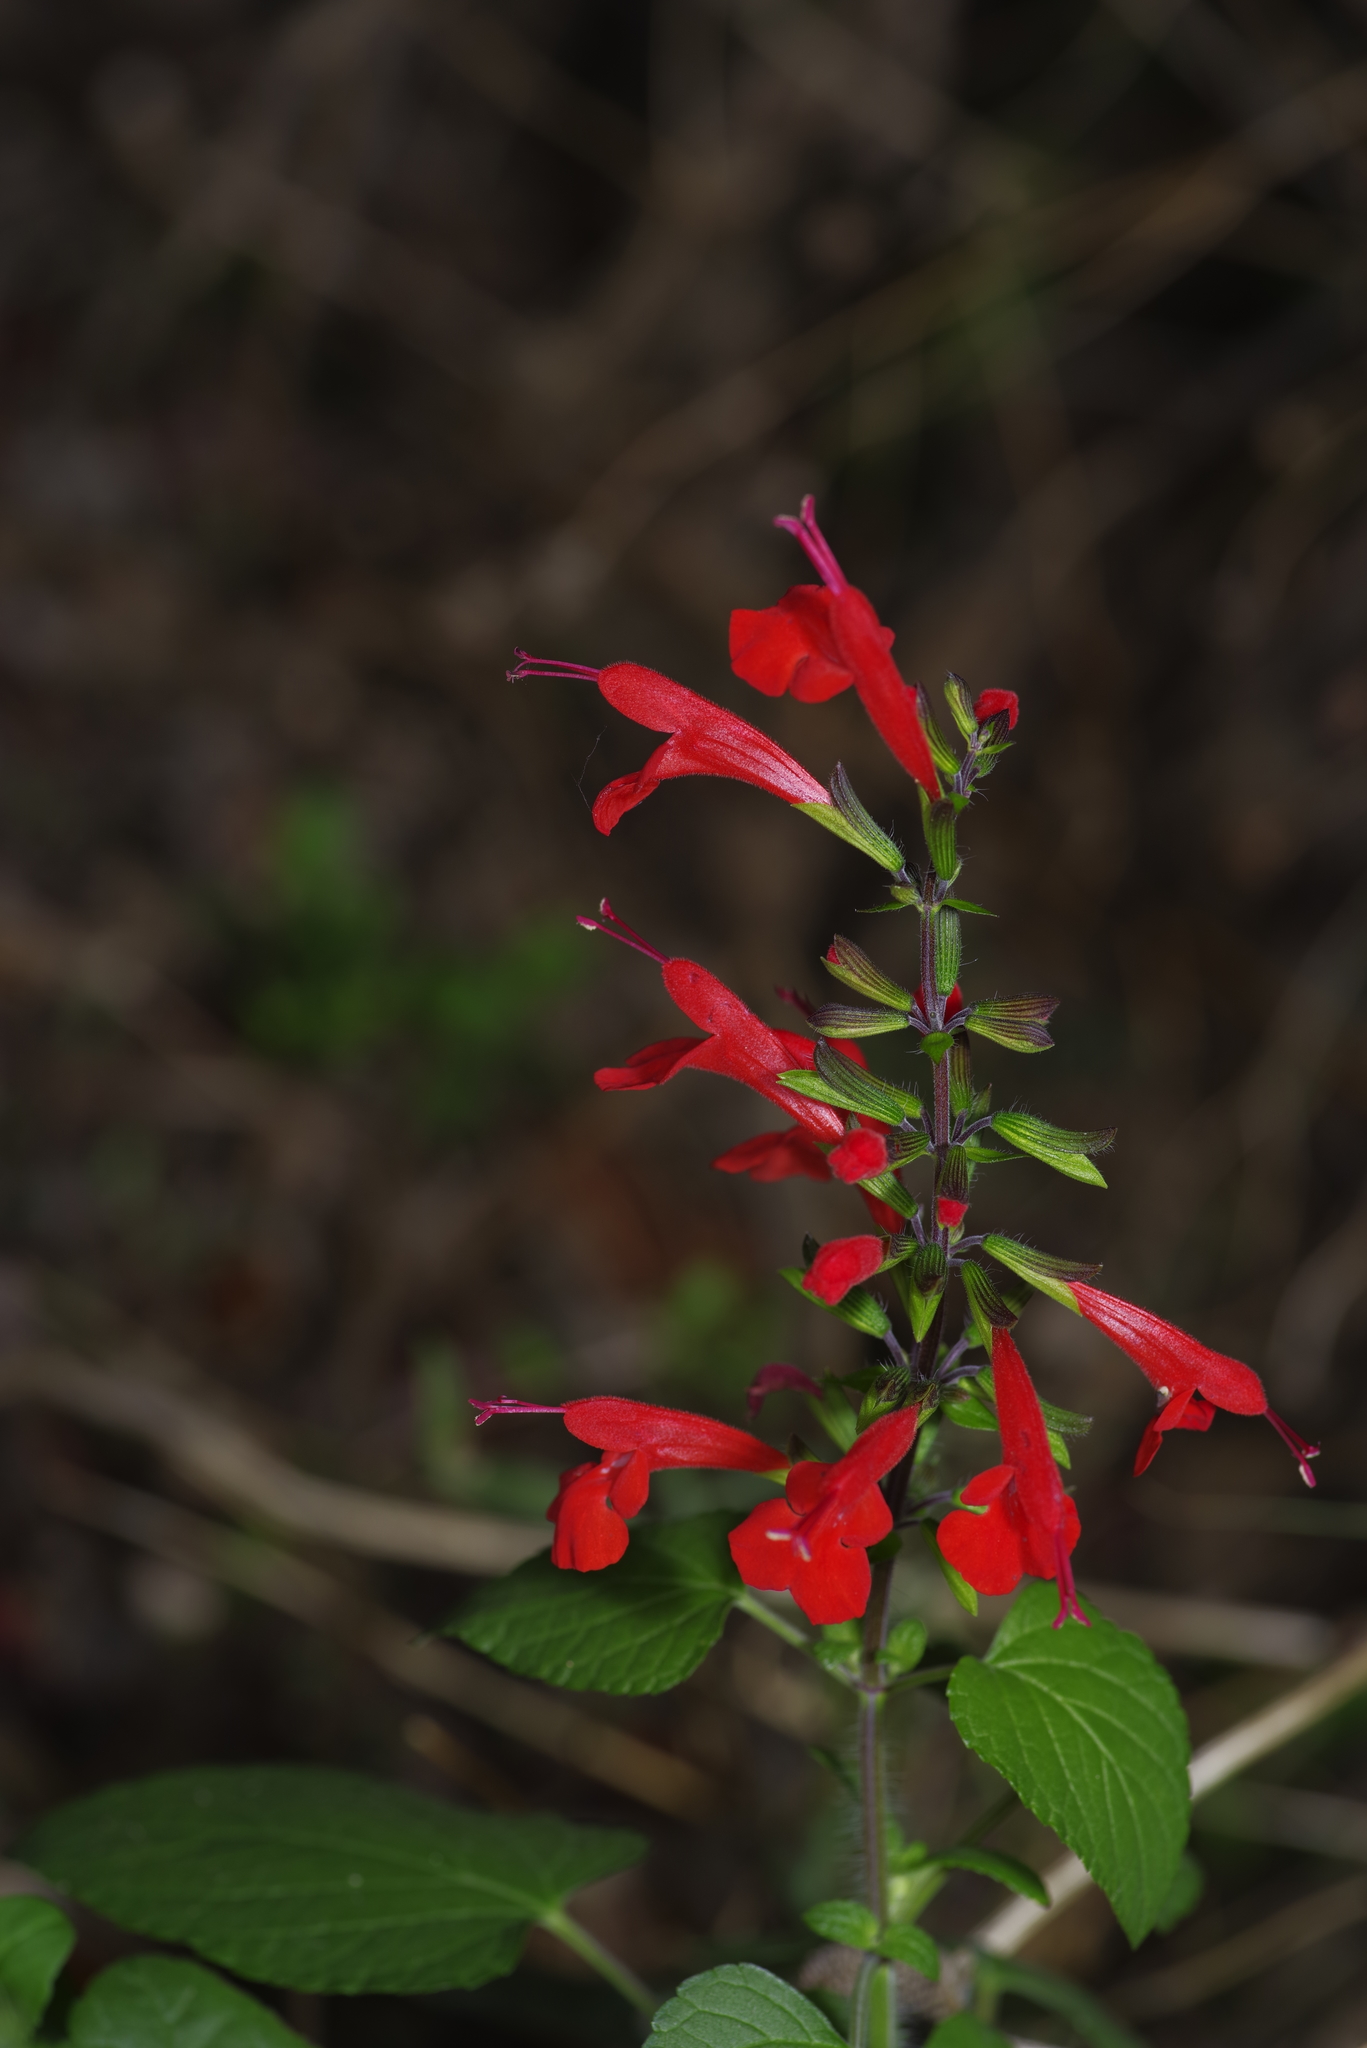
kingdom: Plantae
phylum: Tracheophyta
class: Magnoliopsida
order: Lamiales
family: Lamiaceae
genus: Salvia
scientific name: Salvia coccinea
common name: Blood sage
